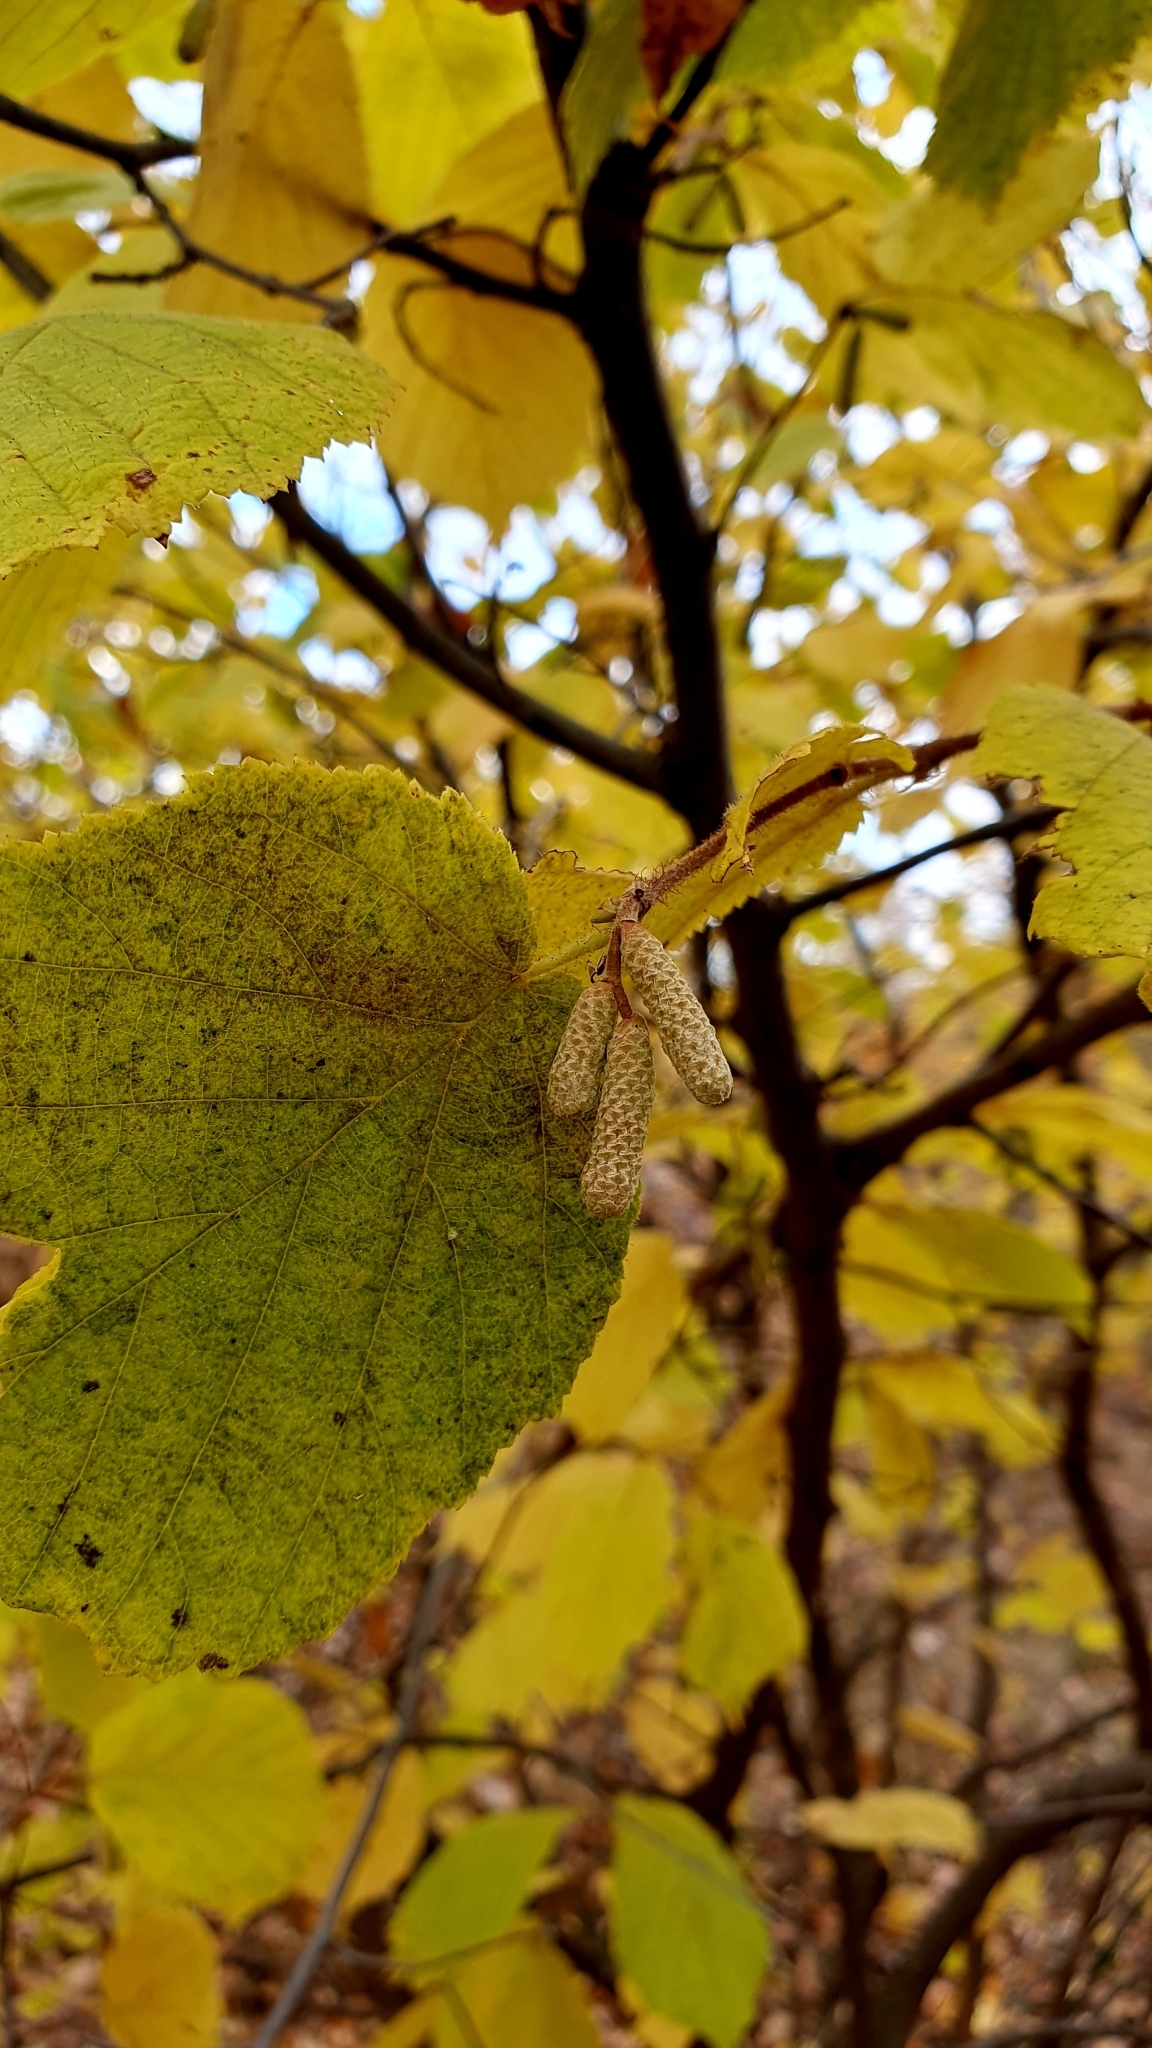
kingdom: Plantae
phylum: Tracheophyta
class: Magnoliopsida
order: Fagales
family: Betulaceae
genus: Corylus
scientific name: Corylus avellana
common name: European hazel
